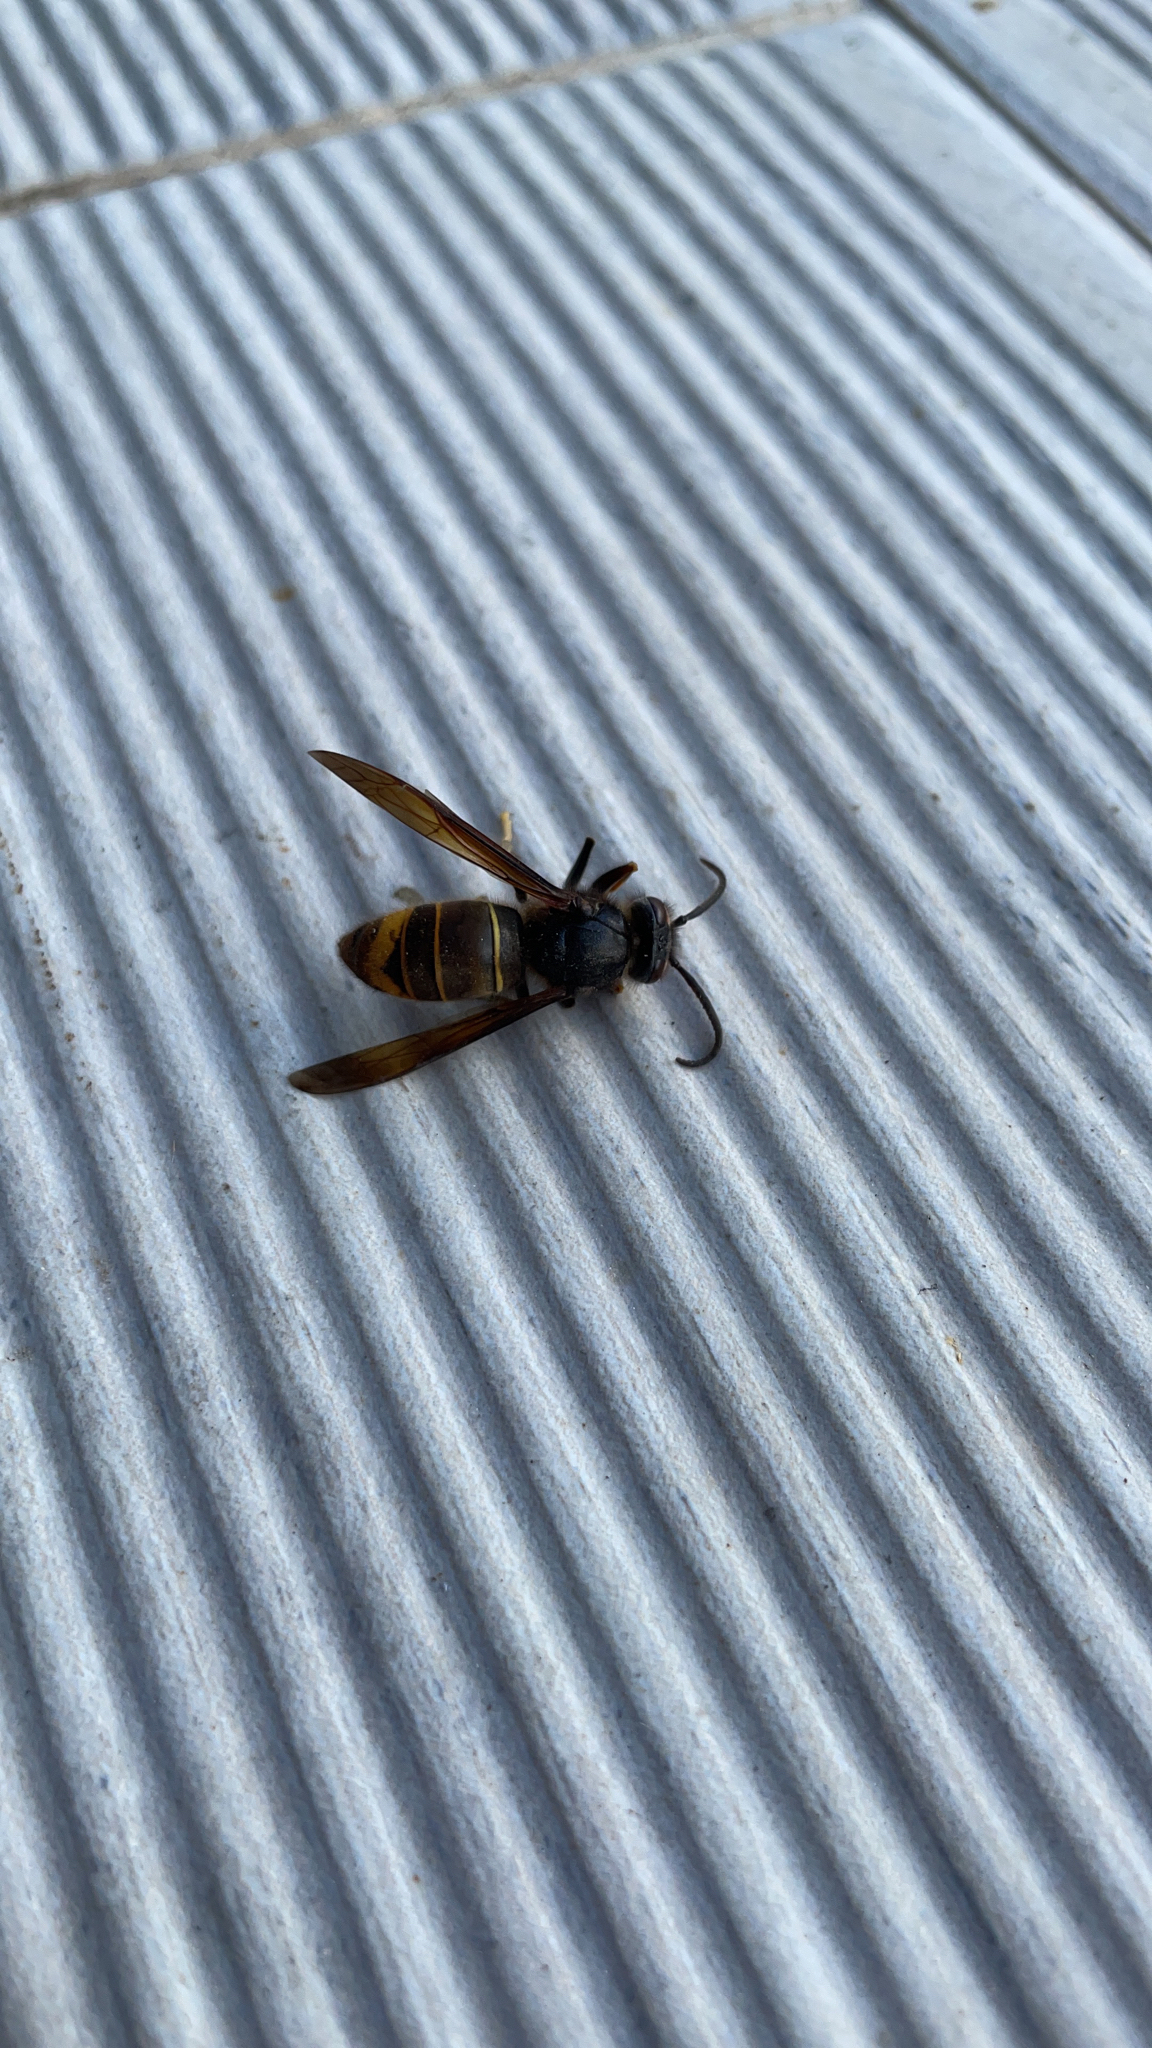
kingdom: Animalia
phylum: Arthropoda
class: Insecta
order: Hymenoptera
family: Vespidae
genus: Vespa
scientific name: Vespa velutina
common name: Asian hornet
